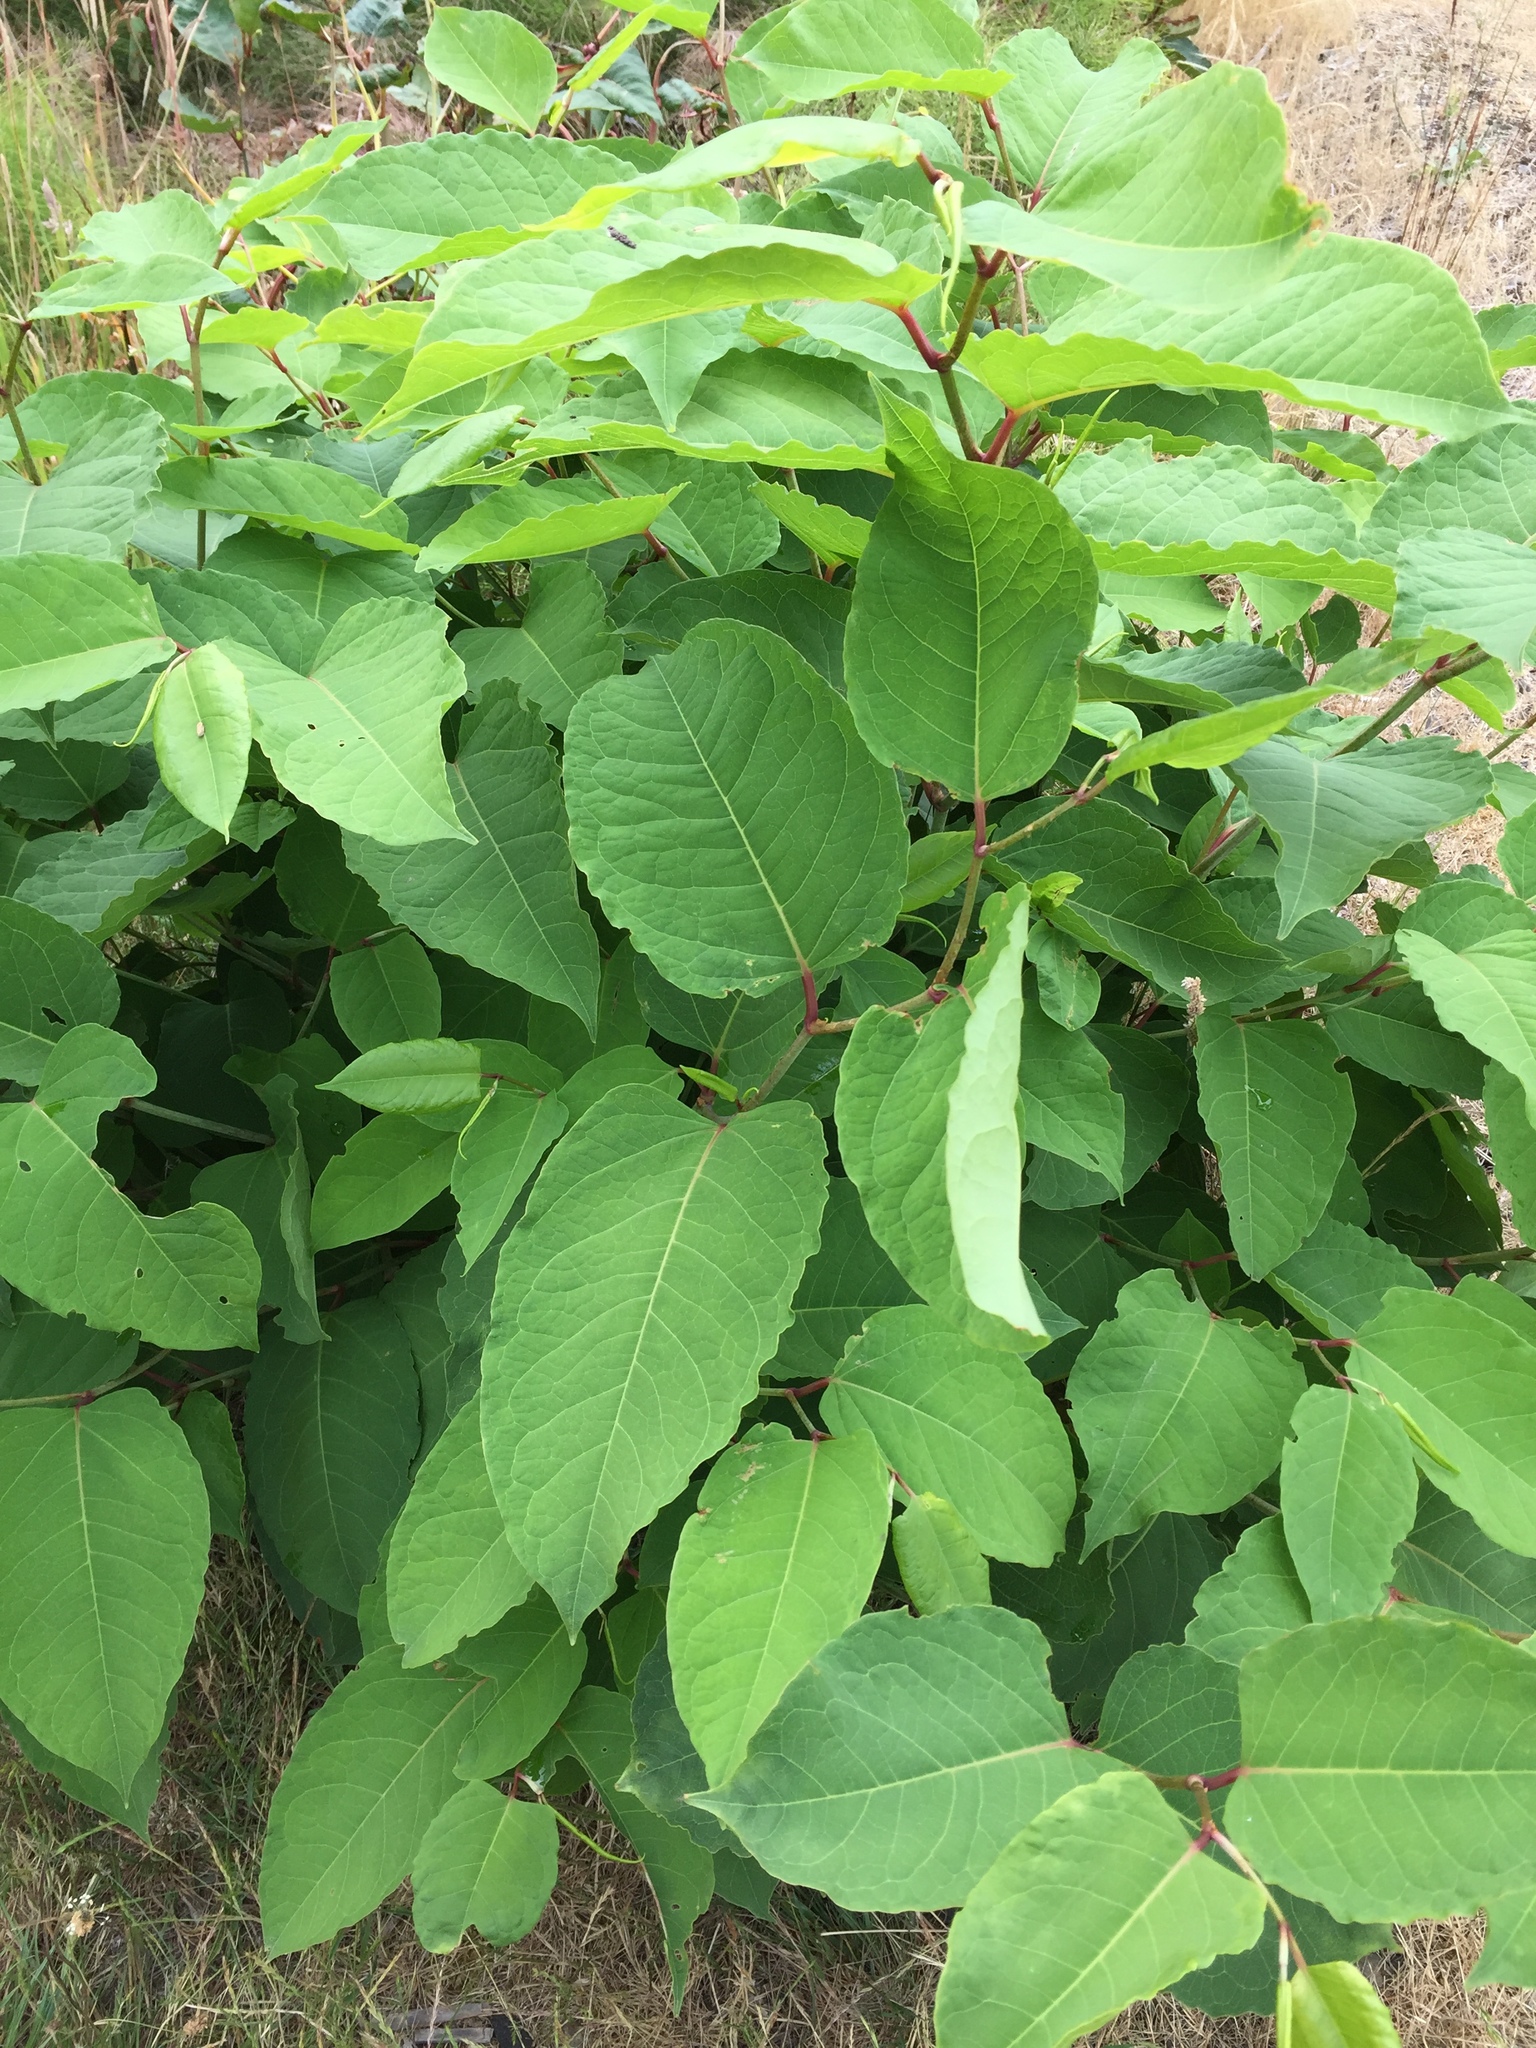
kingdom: Plantae
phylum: Tracheophyta
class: Magnoliopsida
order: Caryophyllales
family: Polygonaceae
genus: Reynoutria
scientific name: Reynoutria japonica
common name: Japanese knotweed
